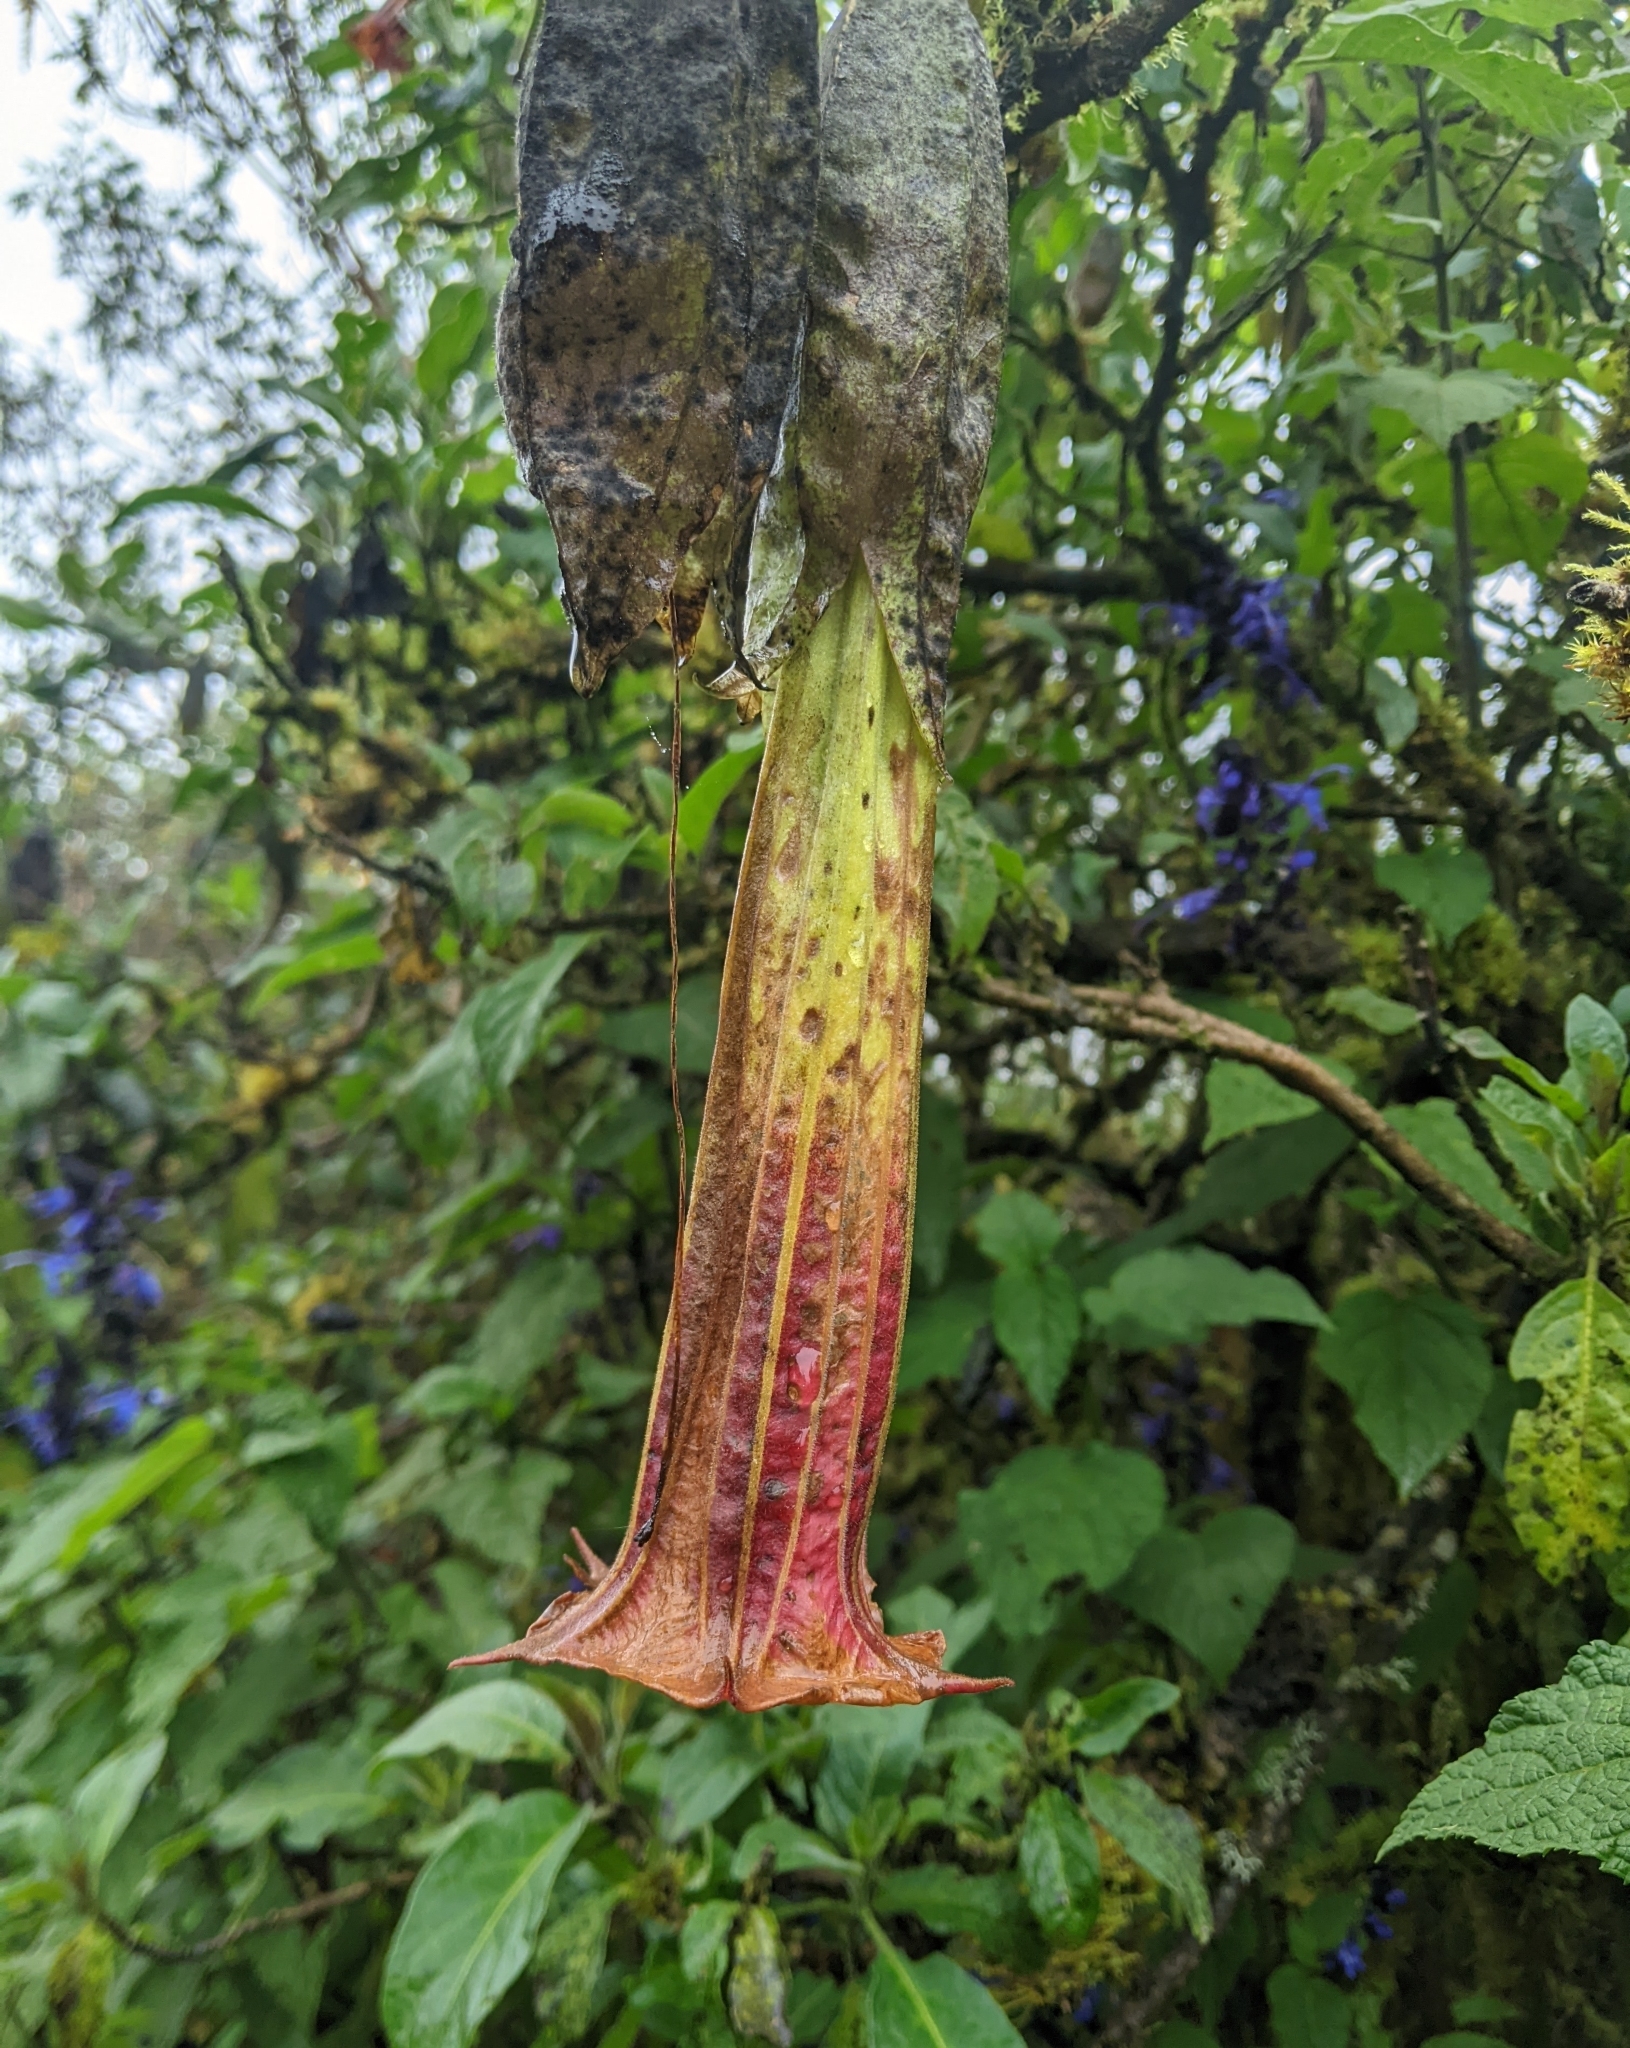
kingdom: Plantae
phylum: Tracheophyta
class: Magnoliopsida
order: Solanales
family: Solanaceae
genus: Brugmansia
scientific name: Brugmansia sanguinea
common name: Red floripontio
